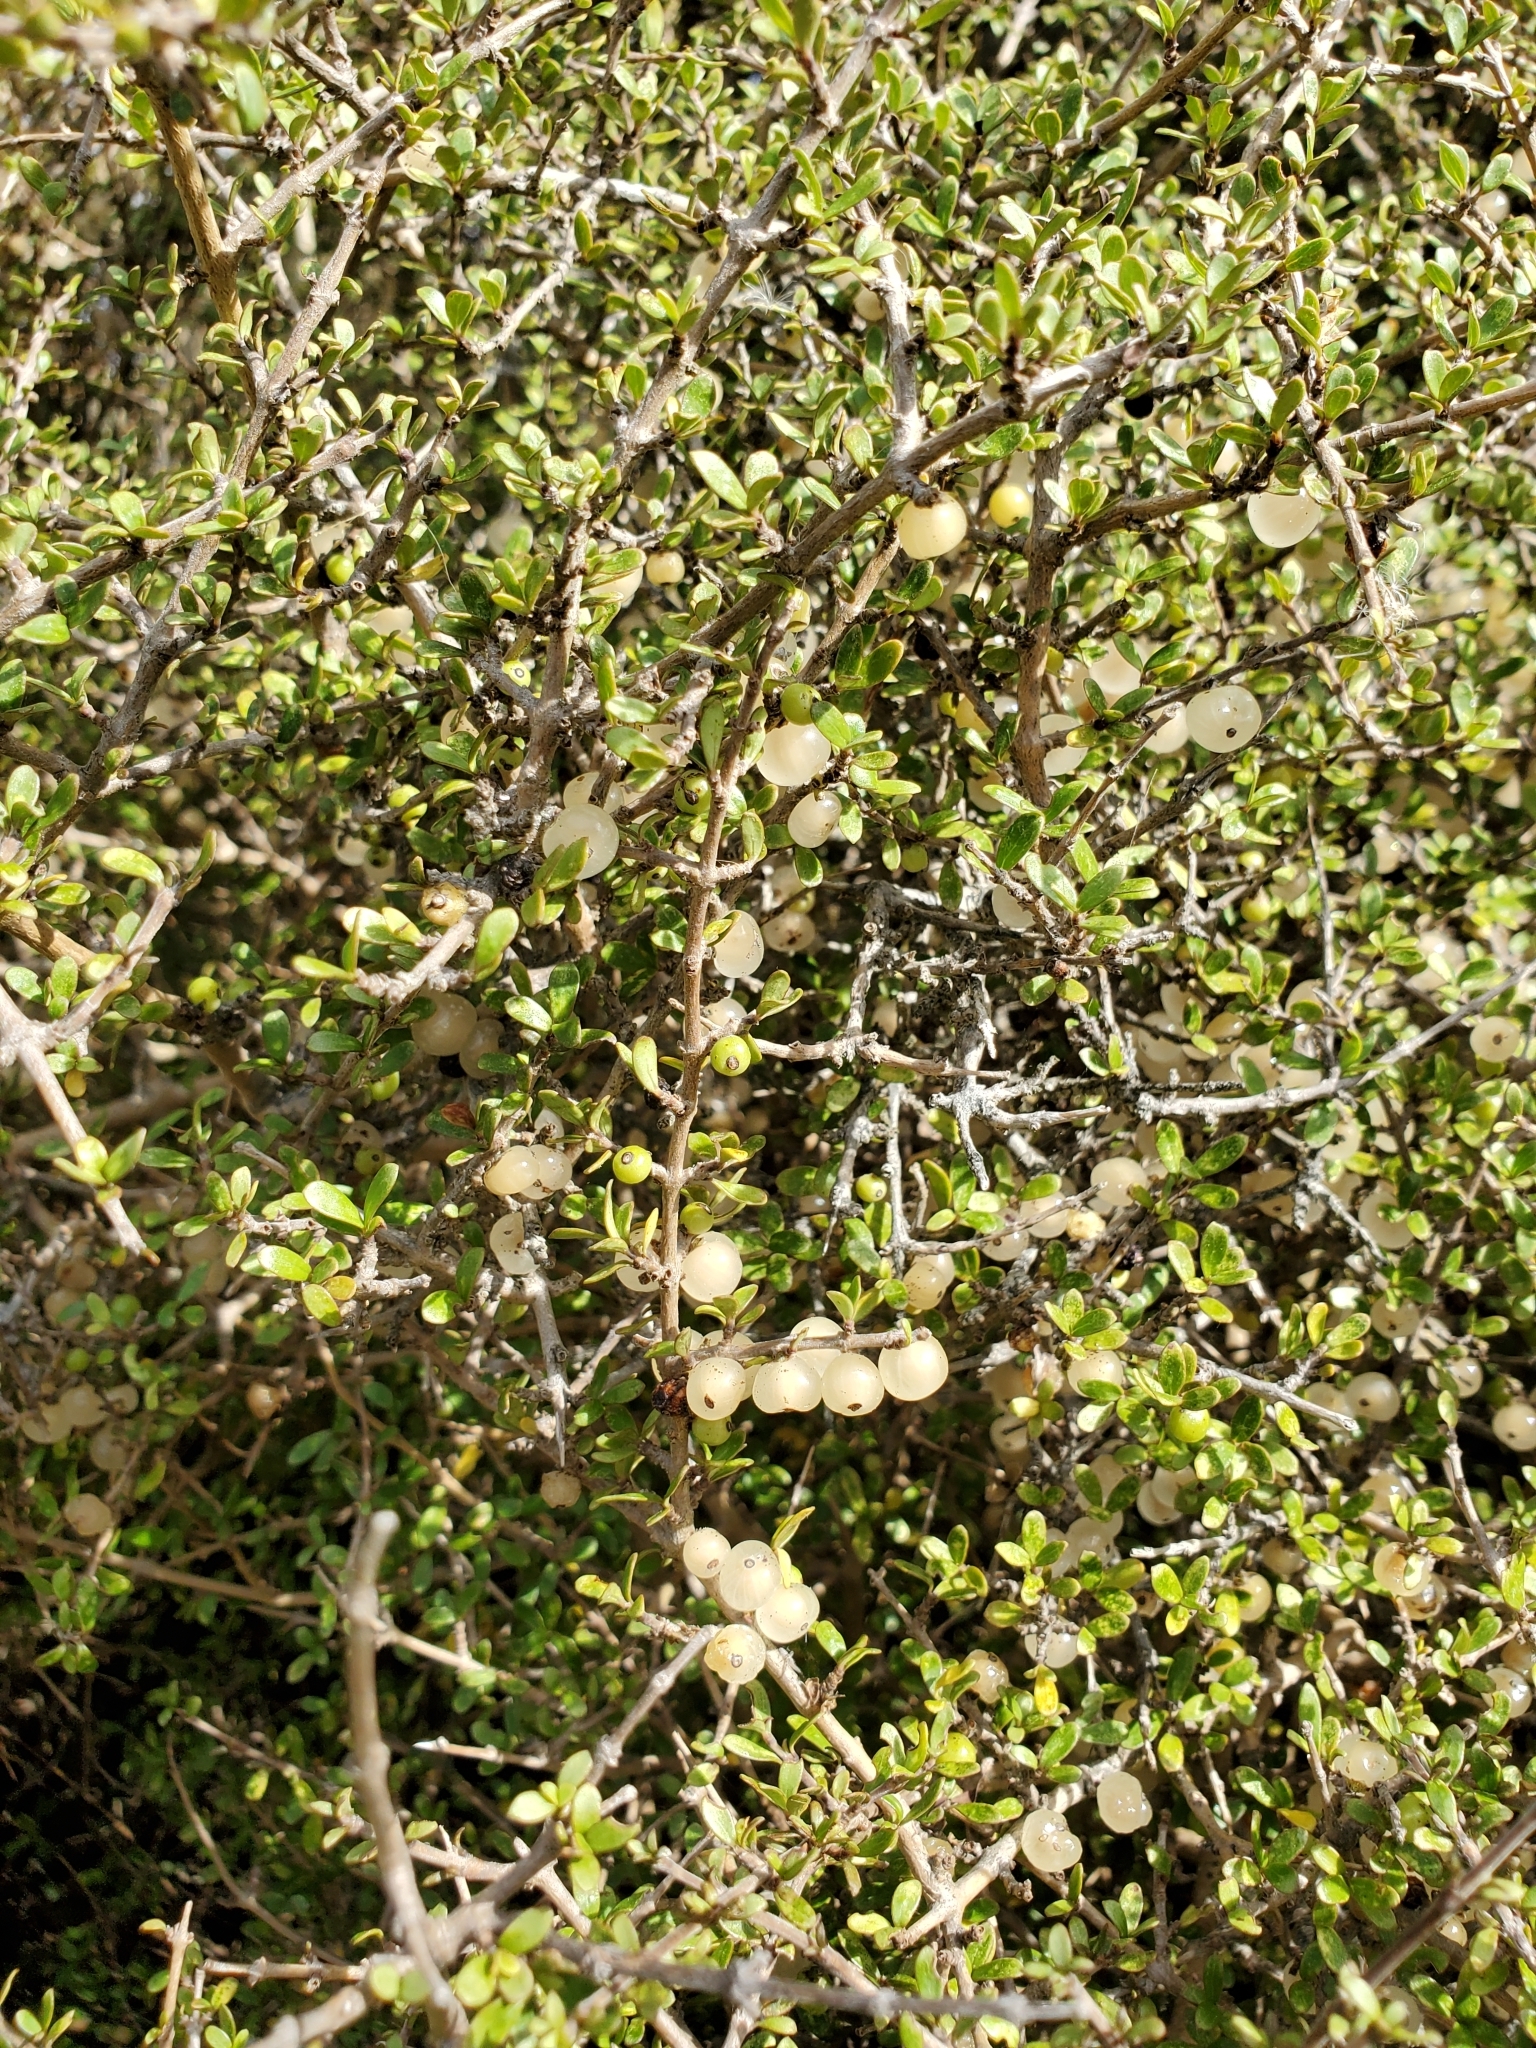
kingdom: Plantae
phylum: Tracheophyta
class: Magnoliopsida
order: Gentianales
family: Rubiaceae
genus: Coprosma
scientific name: Coprosma dumosa
